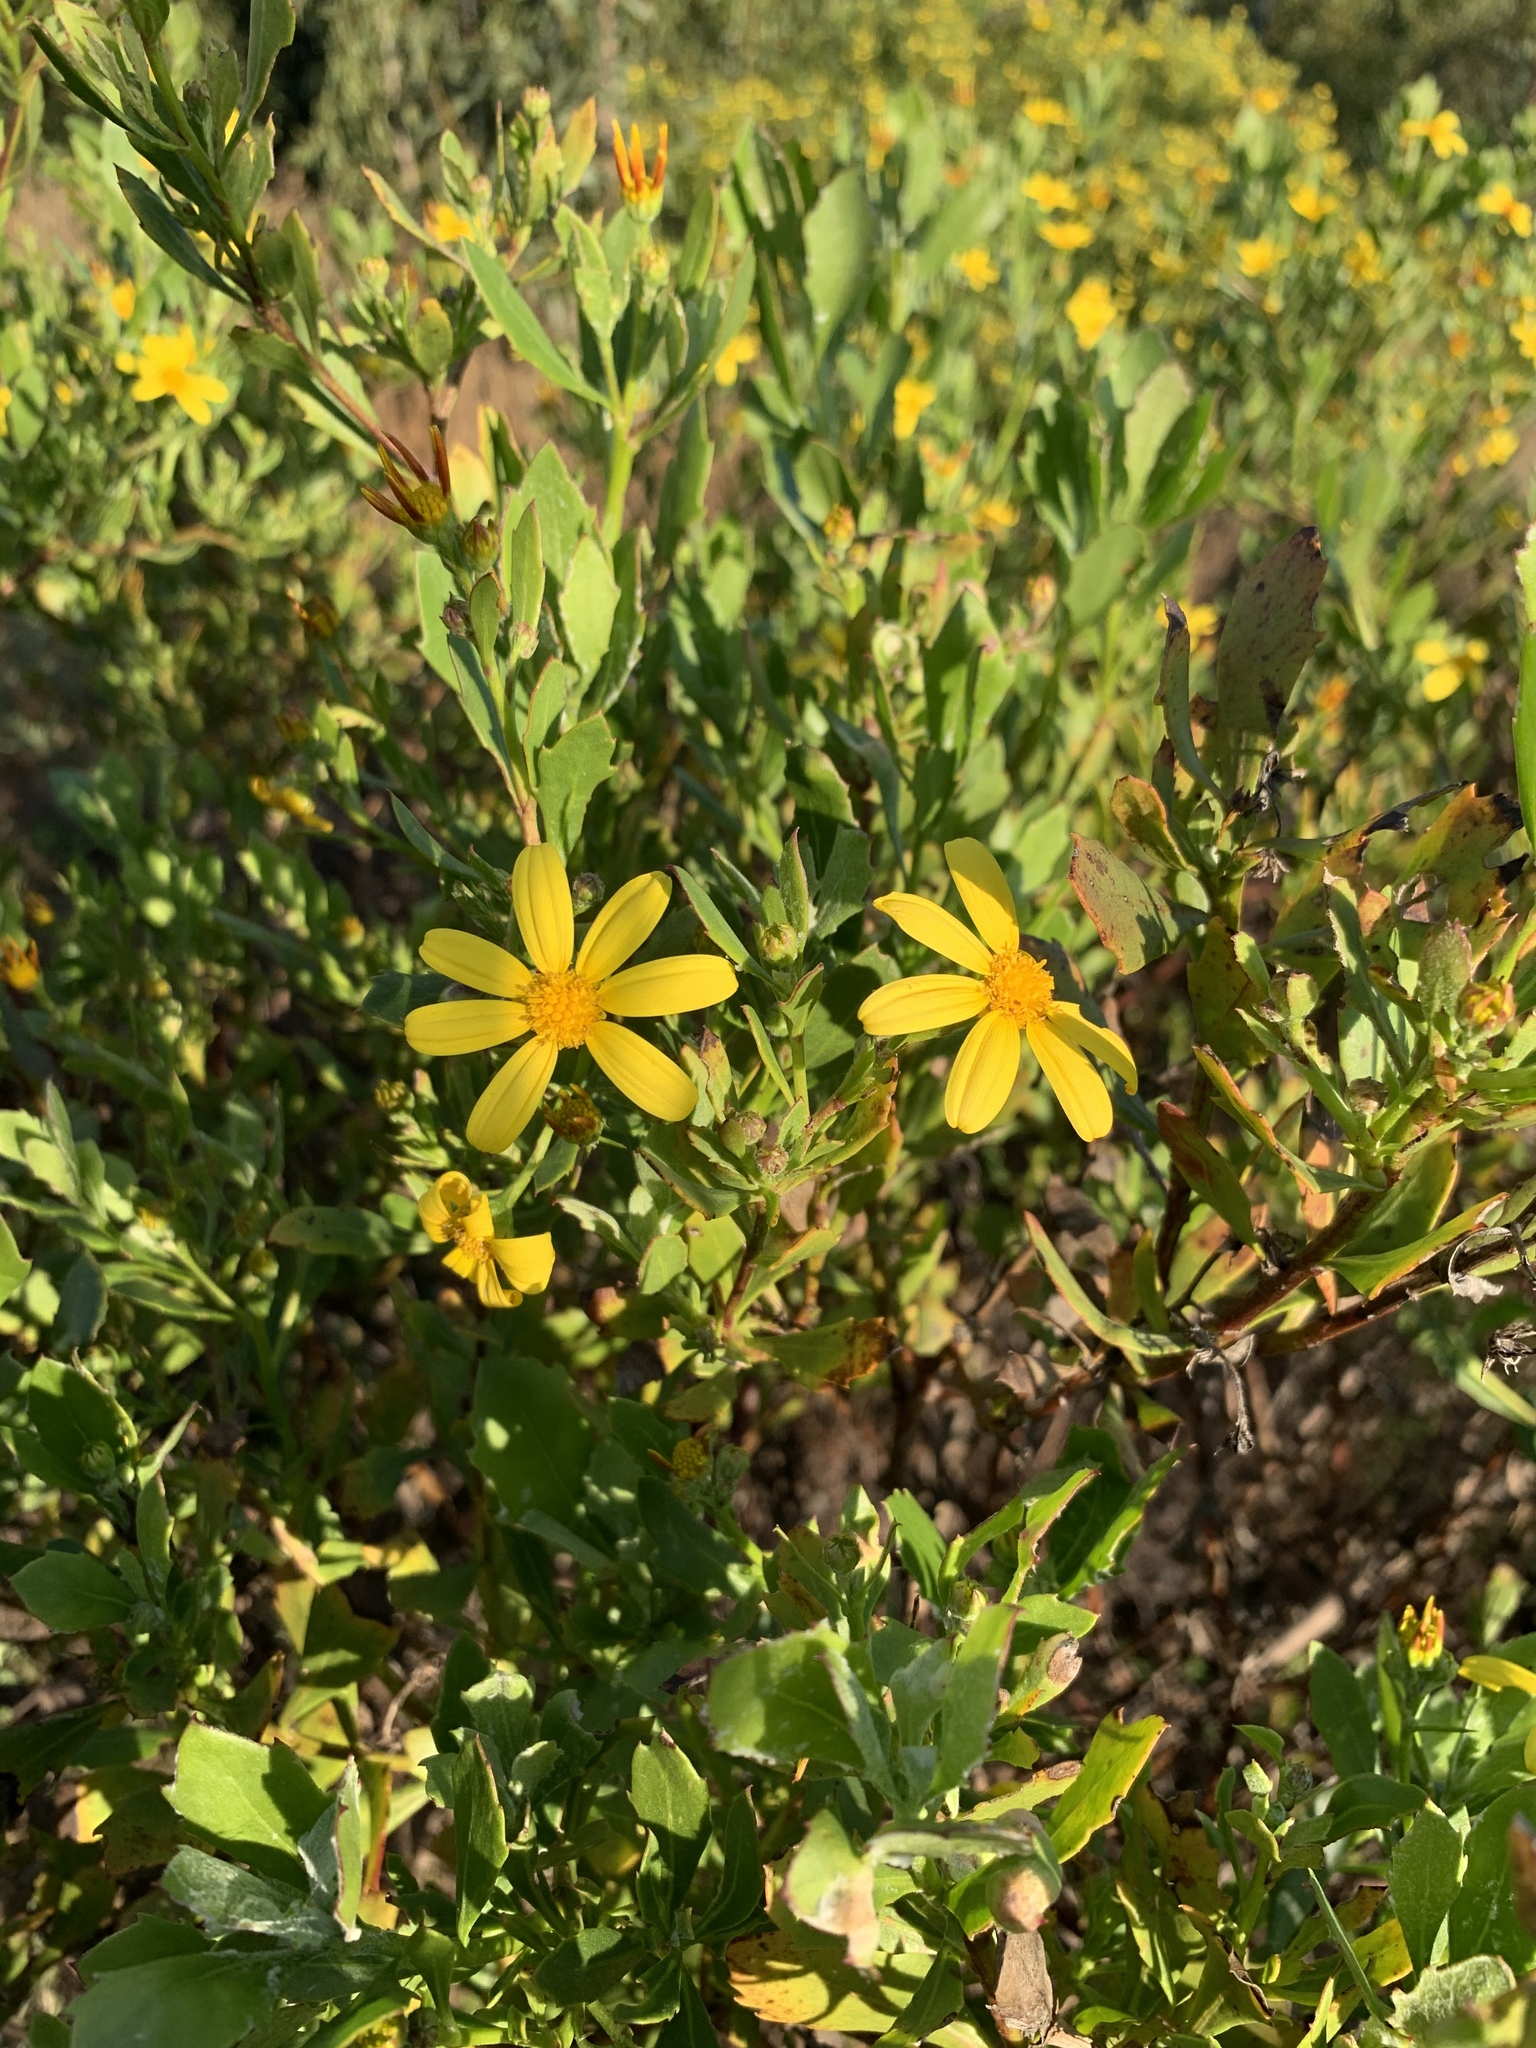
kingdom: Plantae
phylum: Tracheophyta
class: Magnoliopsida
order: Asterales
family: Asteraceae
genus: Osteospermum
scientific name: Osteospermum moniliferum
